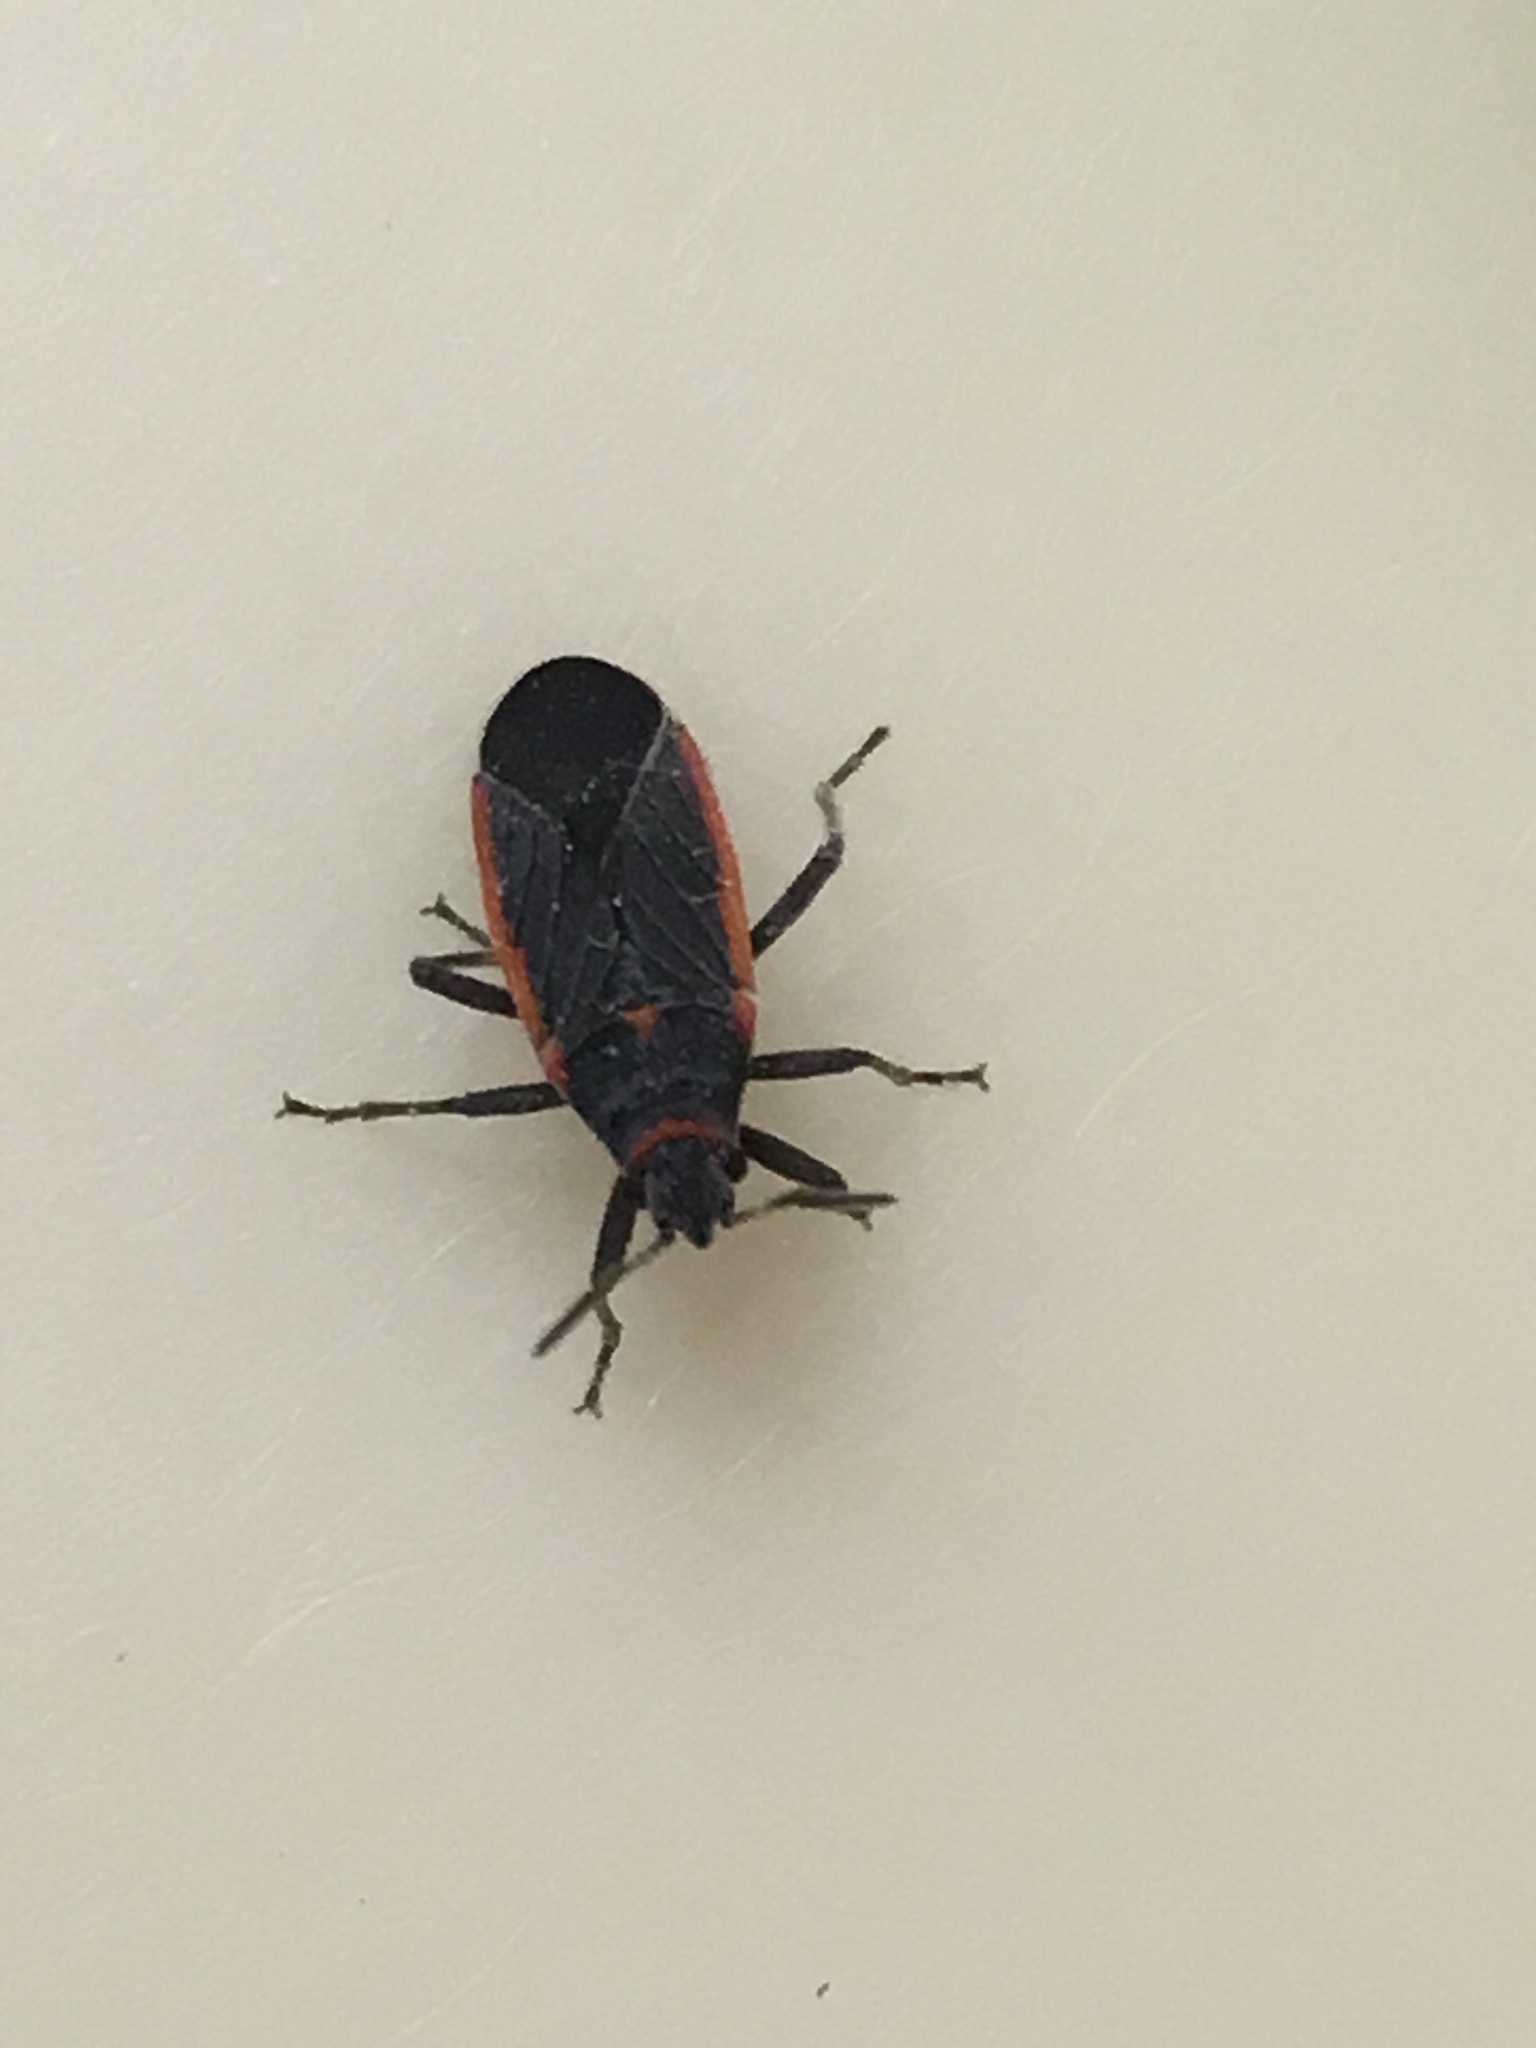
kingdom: Animalia
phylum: Arthropoda
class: Insecta
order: Hemiptera
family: Lygaeidae
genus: Melacoryphus
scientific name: Melacoryphus lateralis
